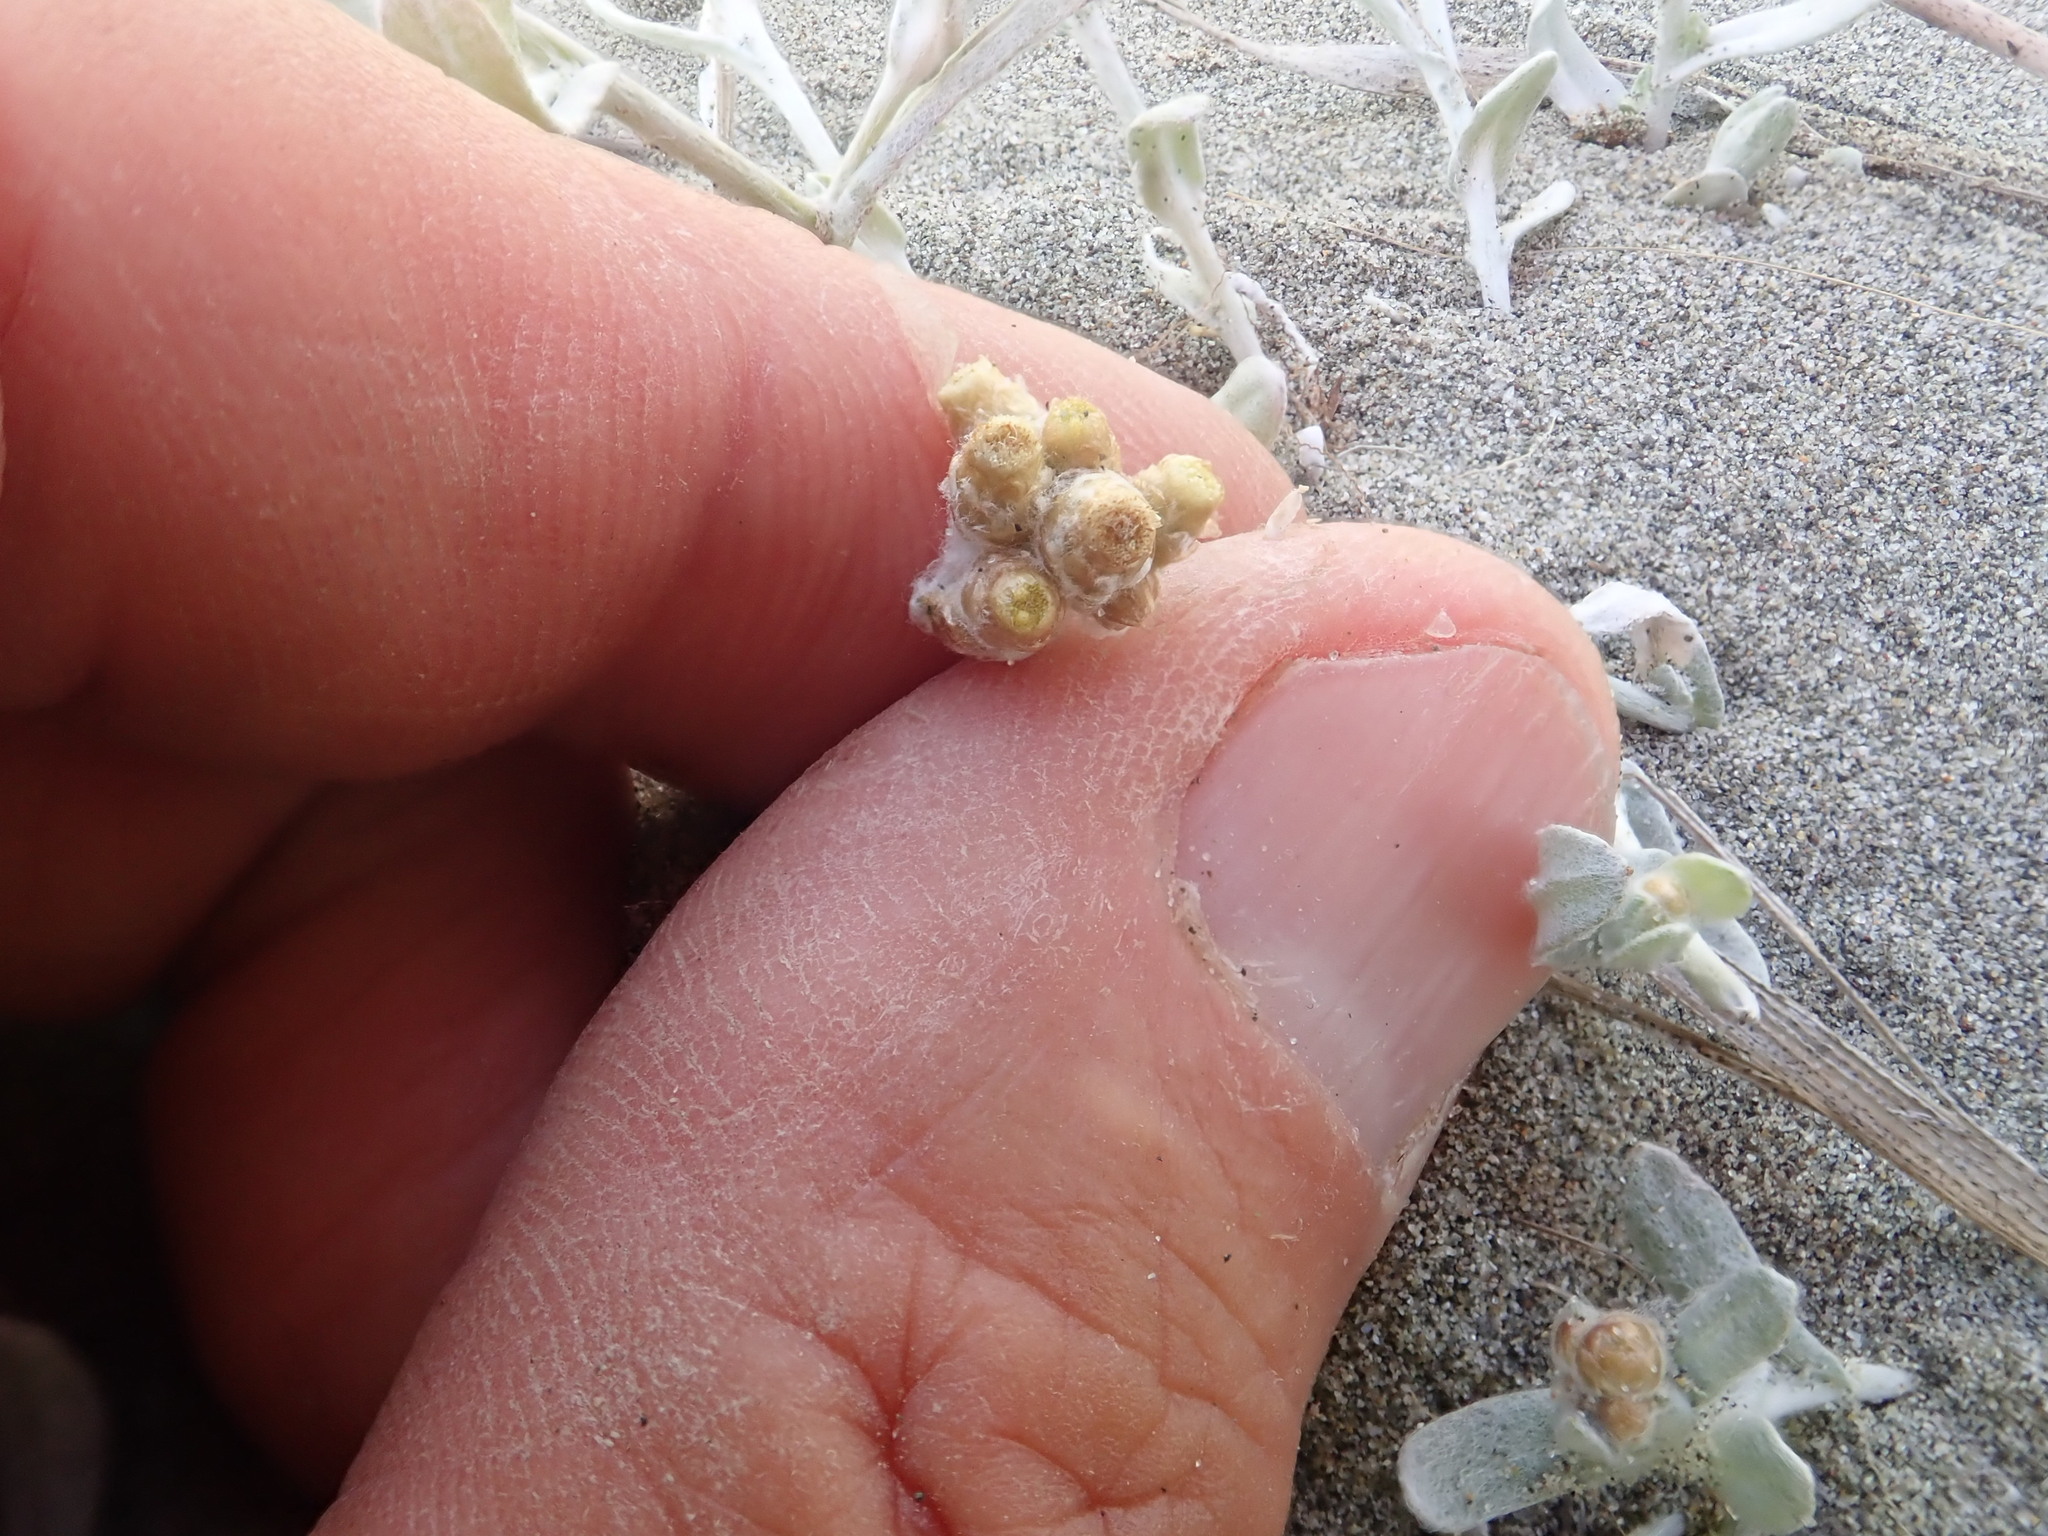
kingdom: Plantae
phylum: Tracheophyta
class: Magnoliopsida
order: Asterales
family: Asteraceae
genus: Pseudognaphalium
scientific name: Pseudognaphalium
